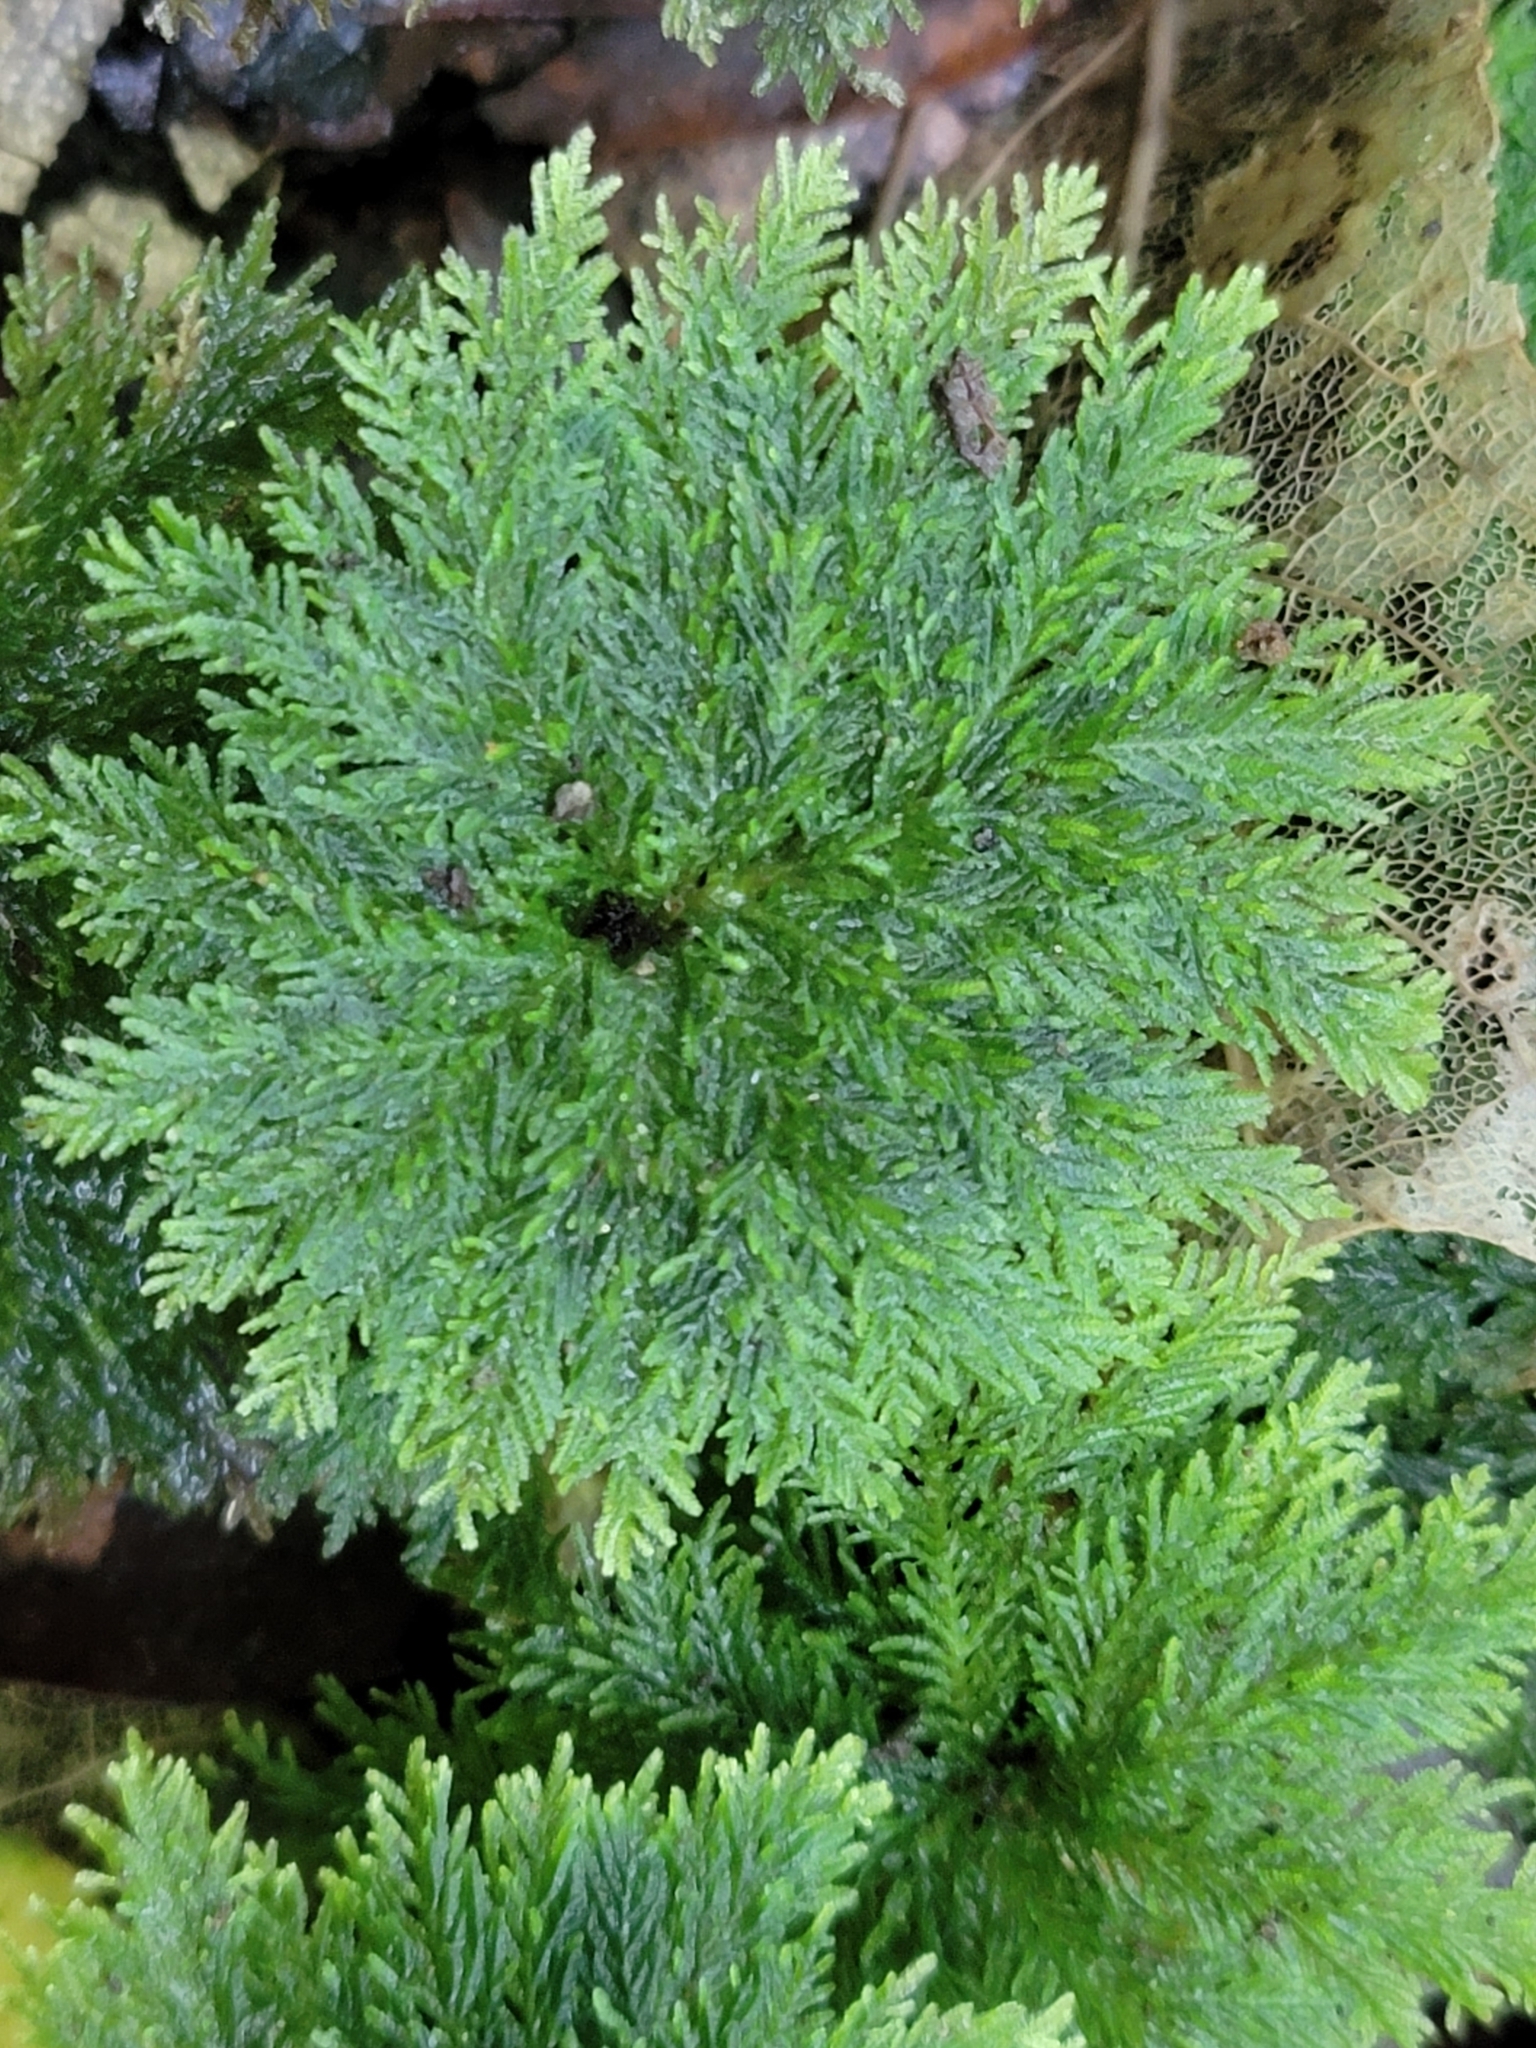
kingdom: Plantae
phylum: Bryophyta
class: Bryopsida
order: Hypopterygiales
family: Hypopterygiaceae
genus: Dendrohypopterygium
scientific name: Dendrohypopterygium filiculiforme
